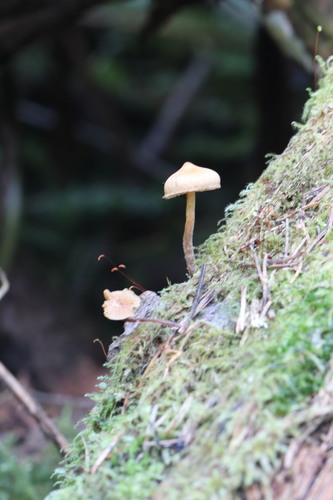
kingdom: Fungi
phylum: Basidiomycota
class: Agaricomycetes
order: Agaricales
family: Hymenogastraceae
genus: Galerina
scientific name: Galerina marginata
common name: Funeral bell
